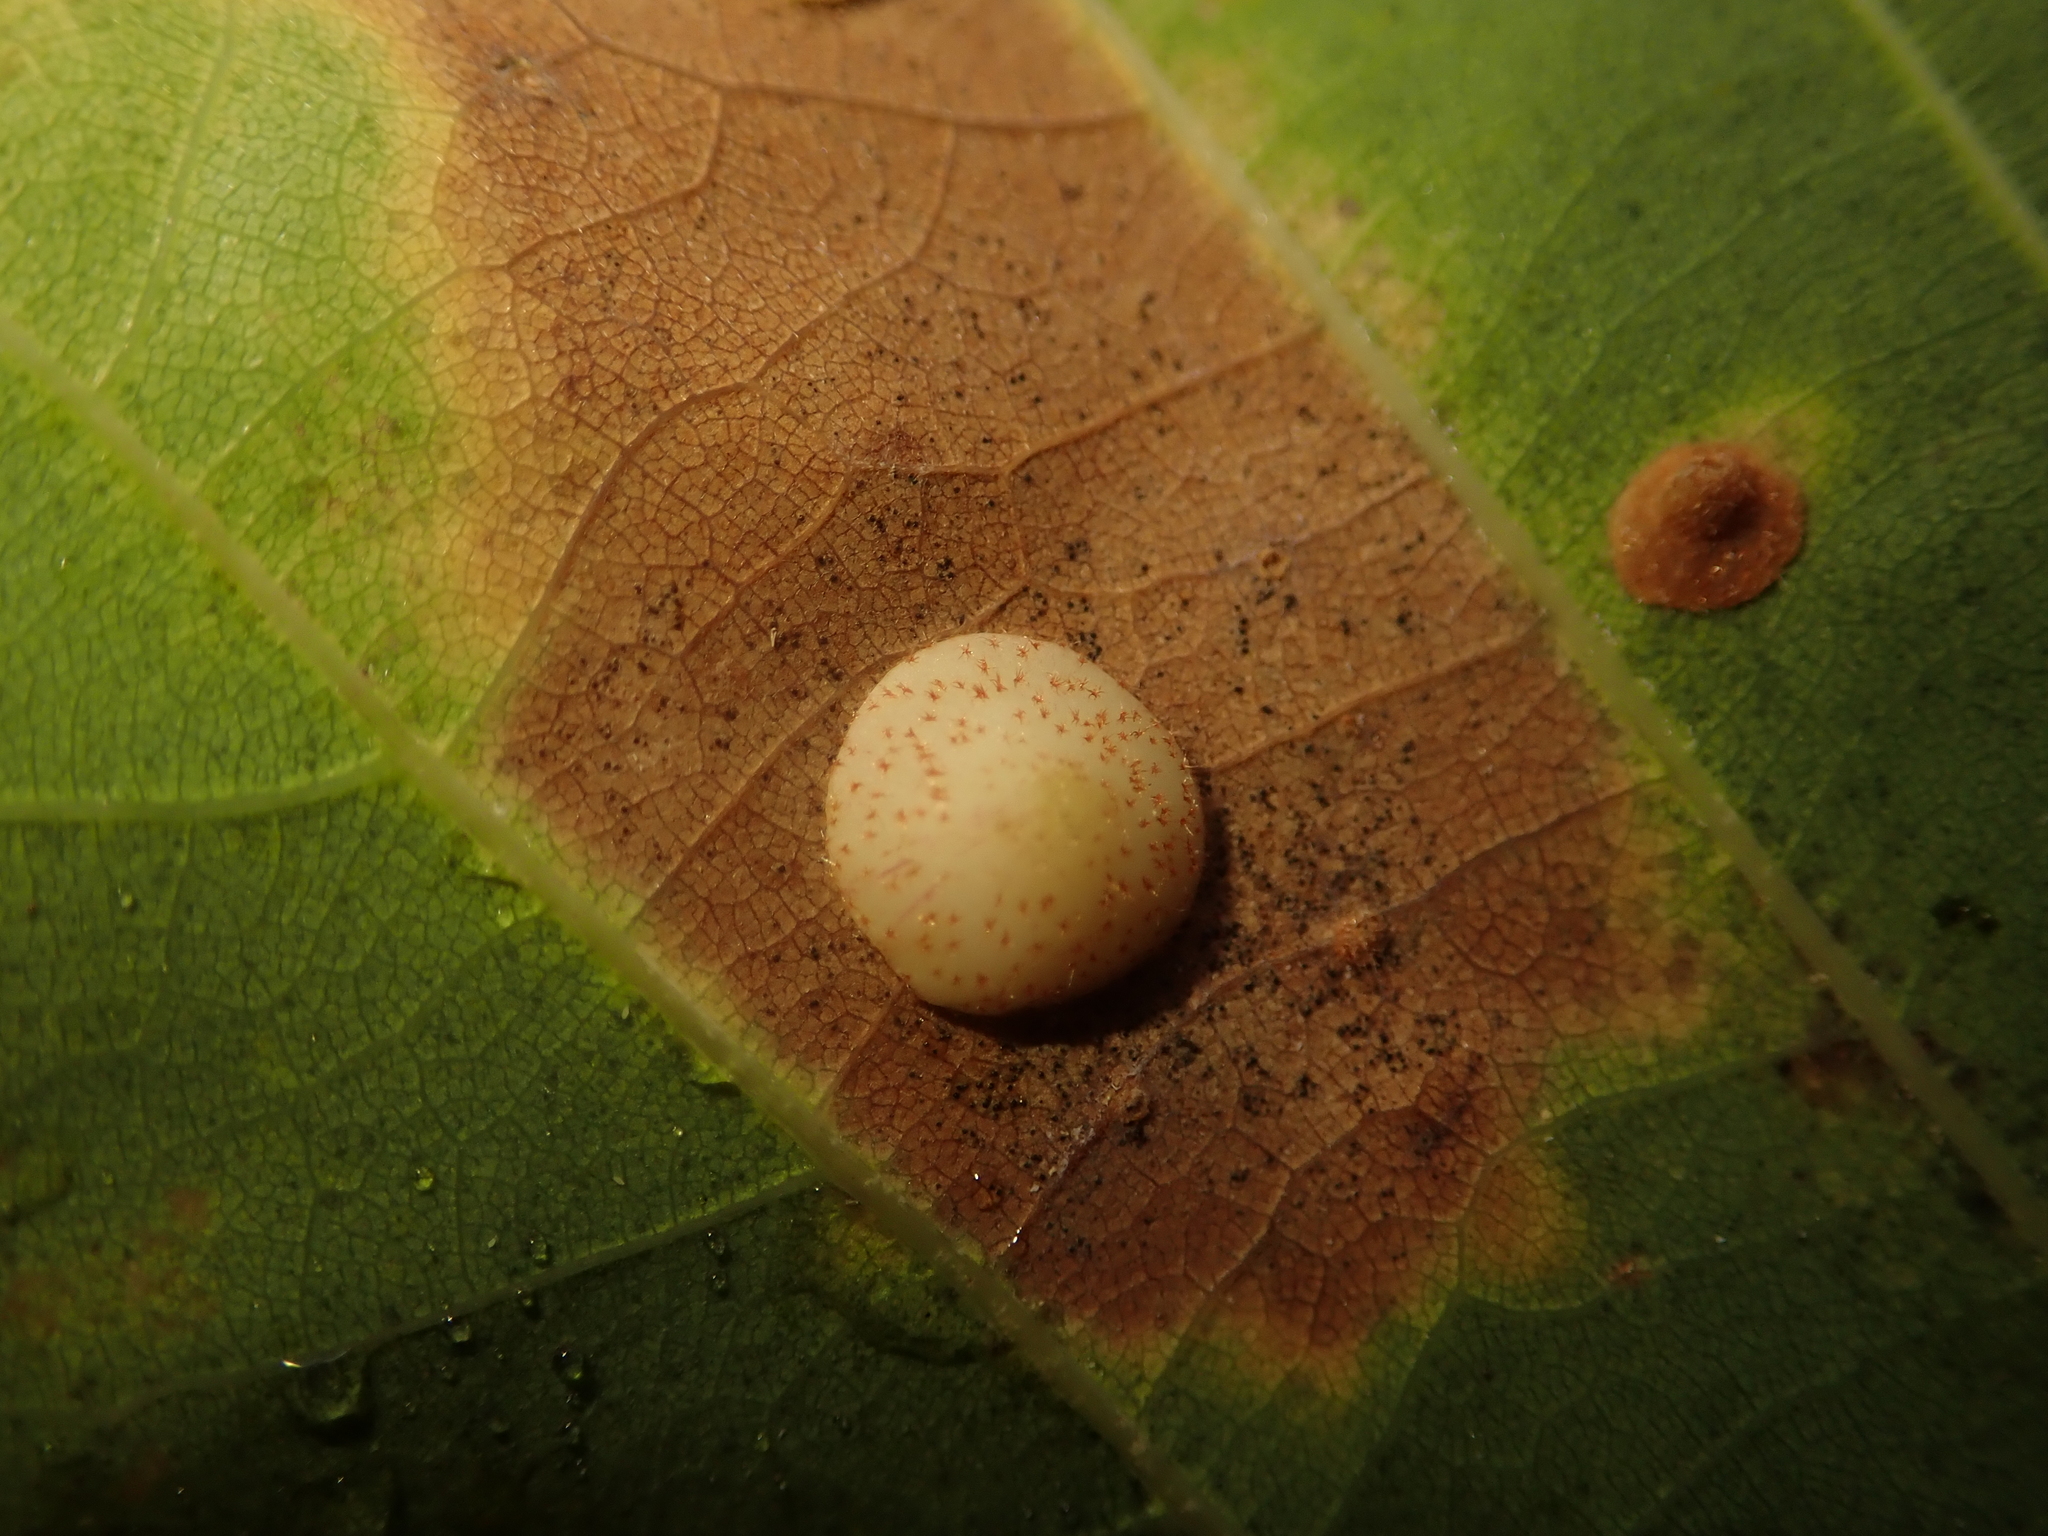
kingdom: Animalia
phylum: Arthropoda
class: Insecta
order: Hymenoptera
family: Cynipidae
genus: Neuroterus
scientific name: Neuroterus quercusbaccarum
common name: Common spangle gall
